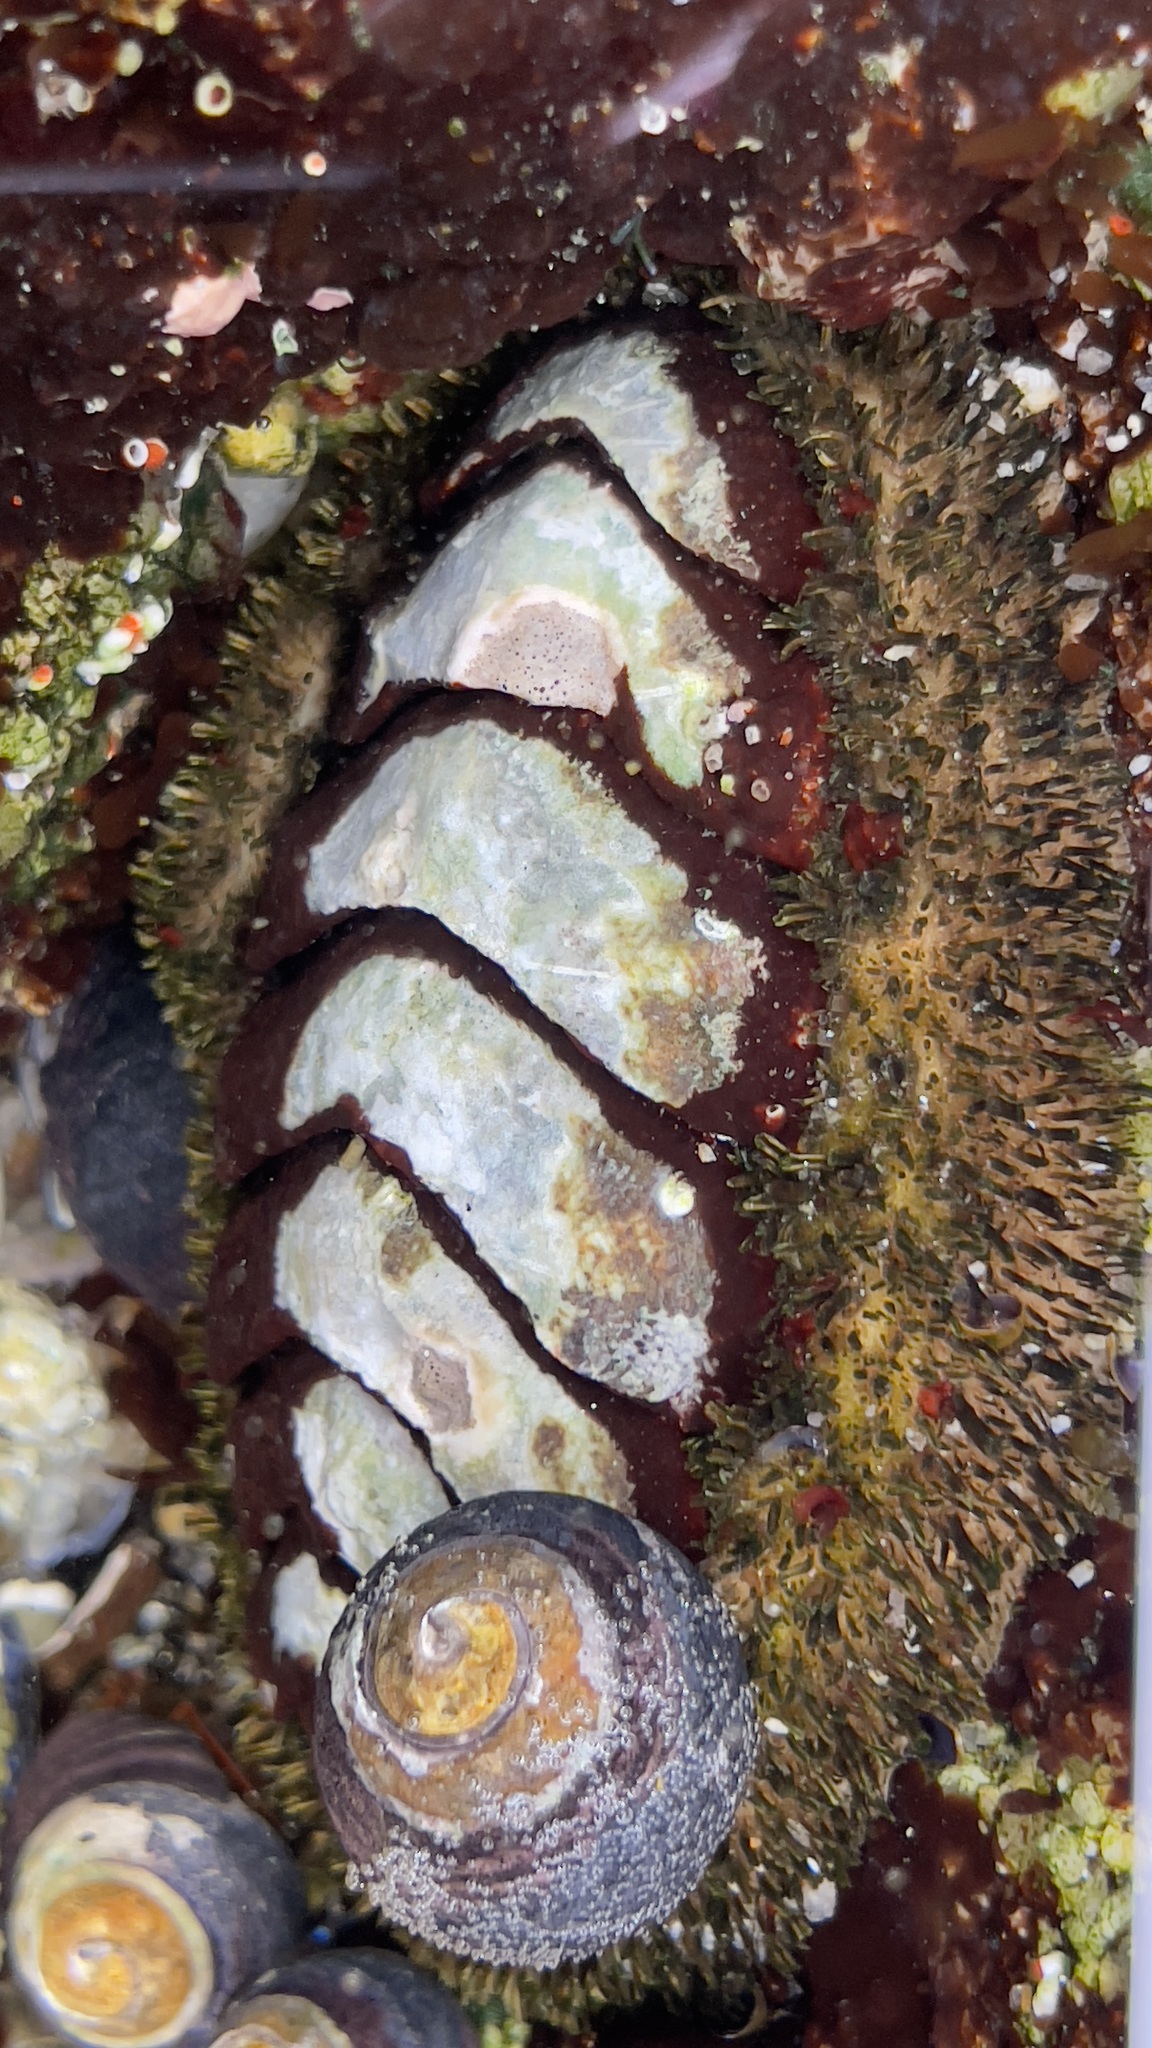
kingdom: Animalia
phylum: Mollusca
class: Polyplacophora
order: Chitonida
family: Mopaliidae
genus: Mopalia
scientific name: Mopalia muscosa
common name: Mossy chiton
